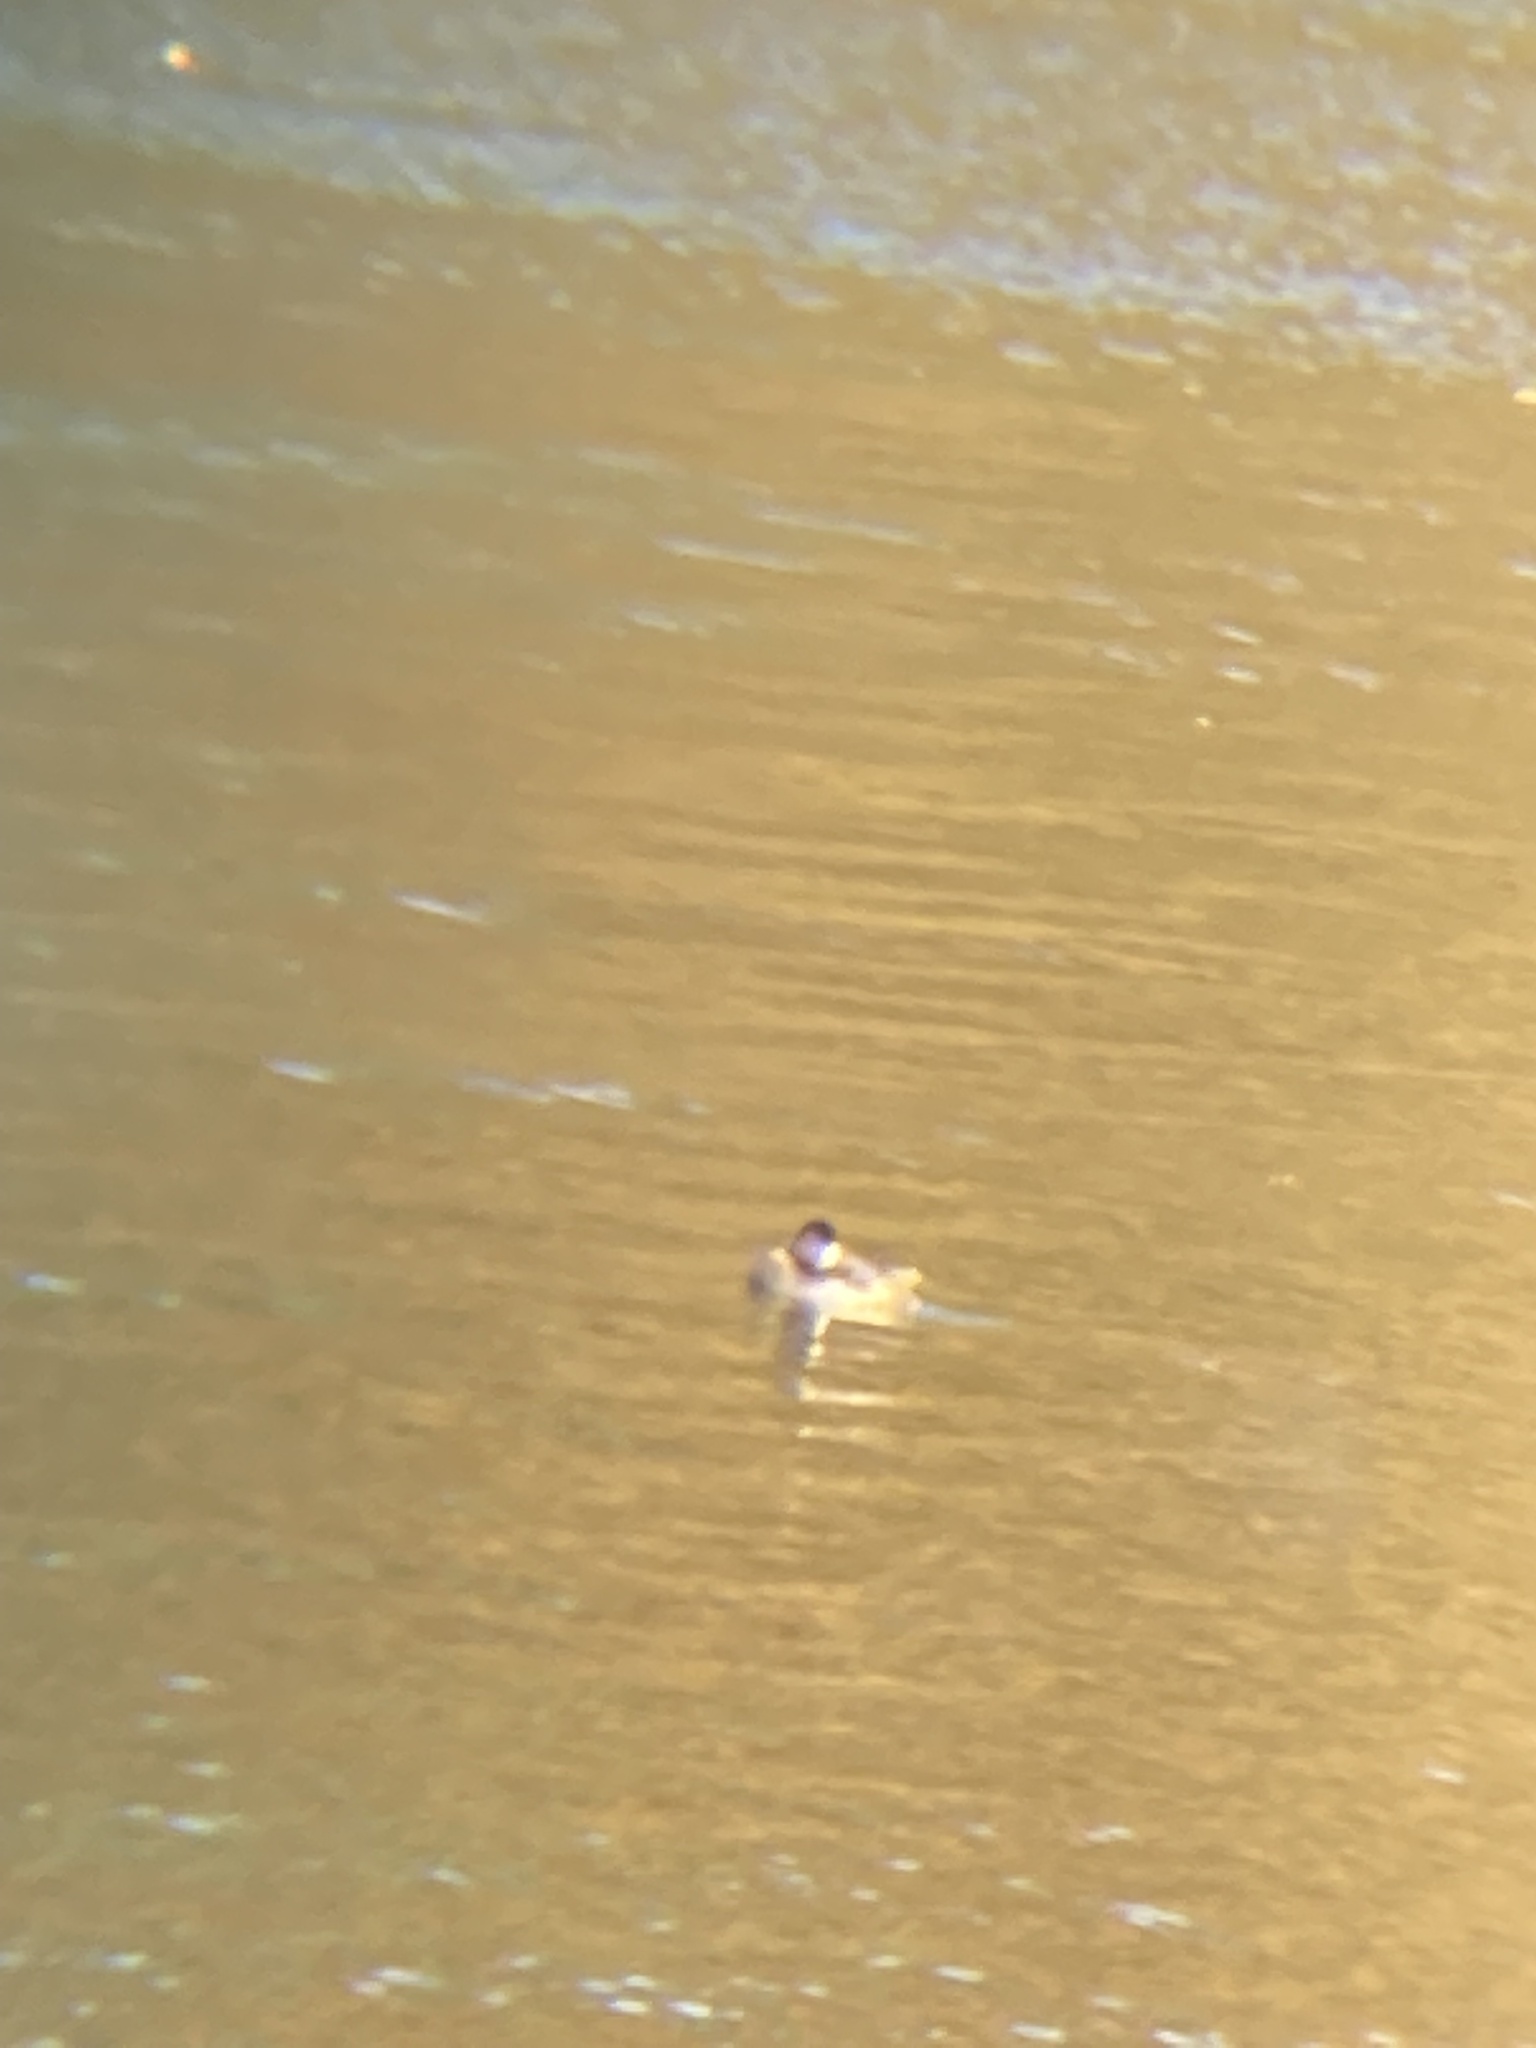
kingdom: Animalia
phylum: Chordata
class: Aves
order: Anseriformes
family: Anatidae
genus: Oxyura
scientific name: Oxyura jamaicensis
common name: Ruddy duck
